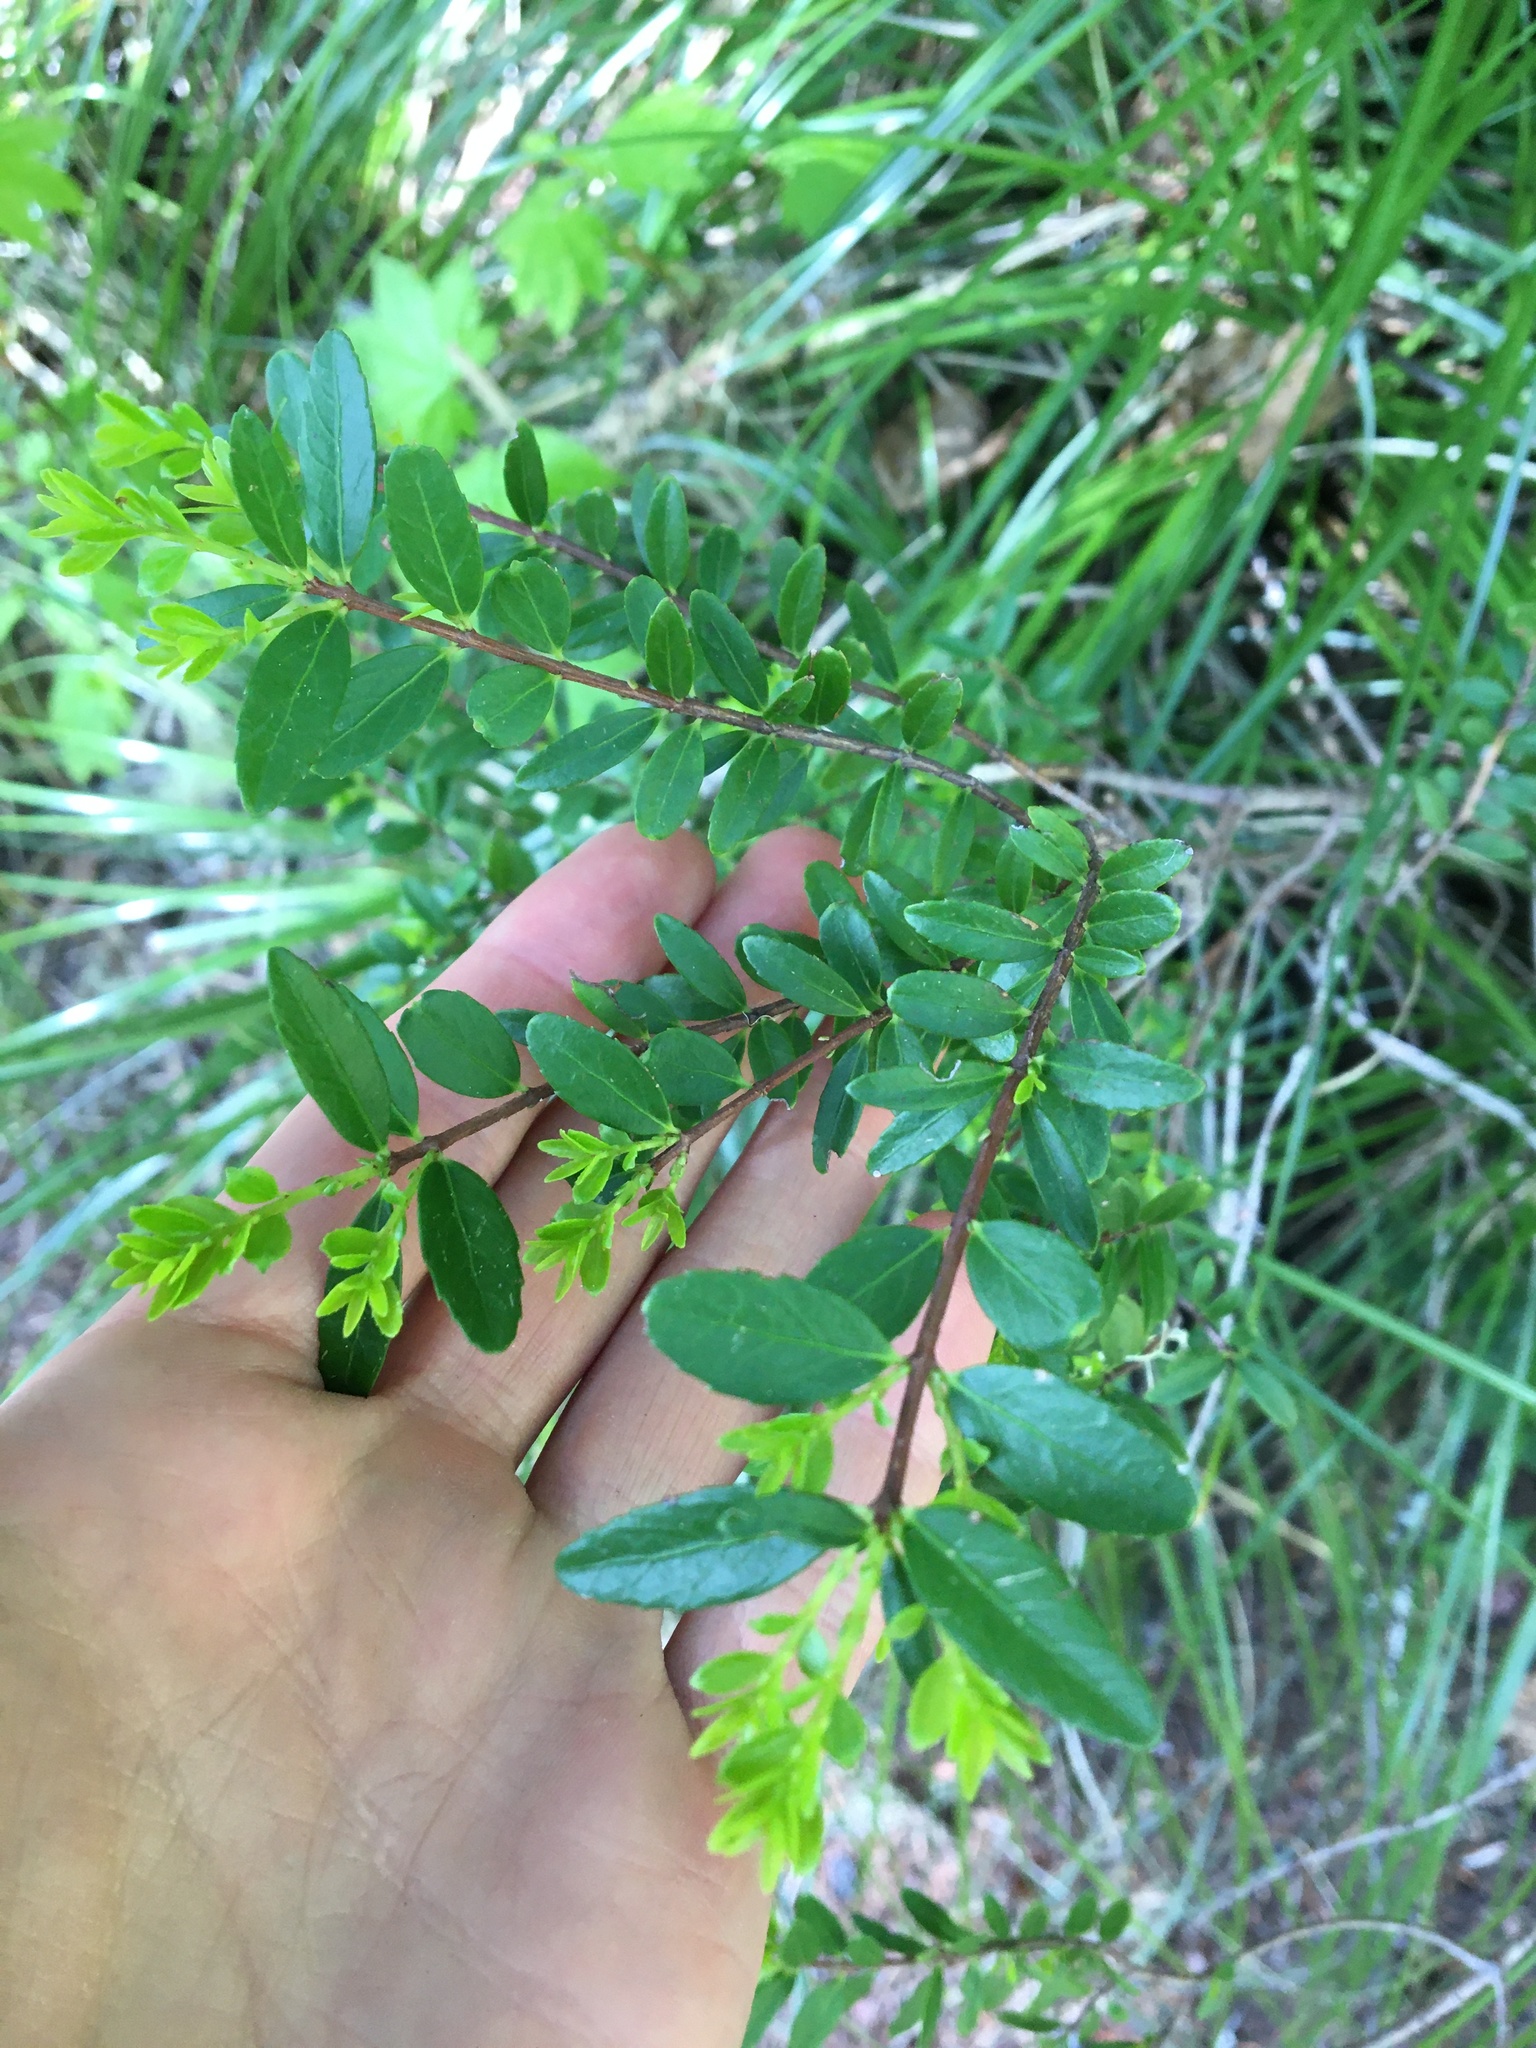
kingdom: Plantae
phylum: Tracheophyta
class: Magnoliopsida
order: Celastrales
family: Celastraceae
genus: Paxistima
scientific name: Paxistima myrsinites
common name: Mountain-lover
